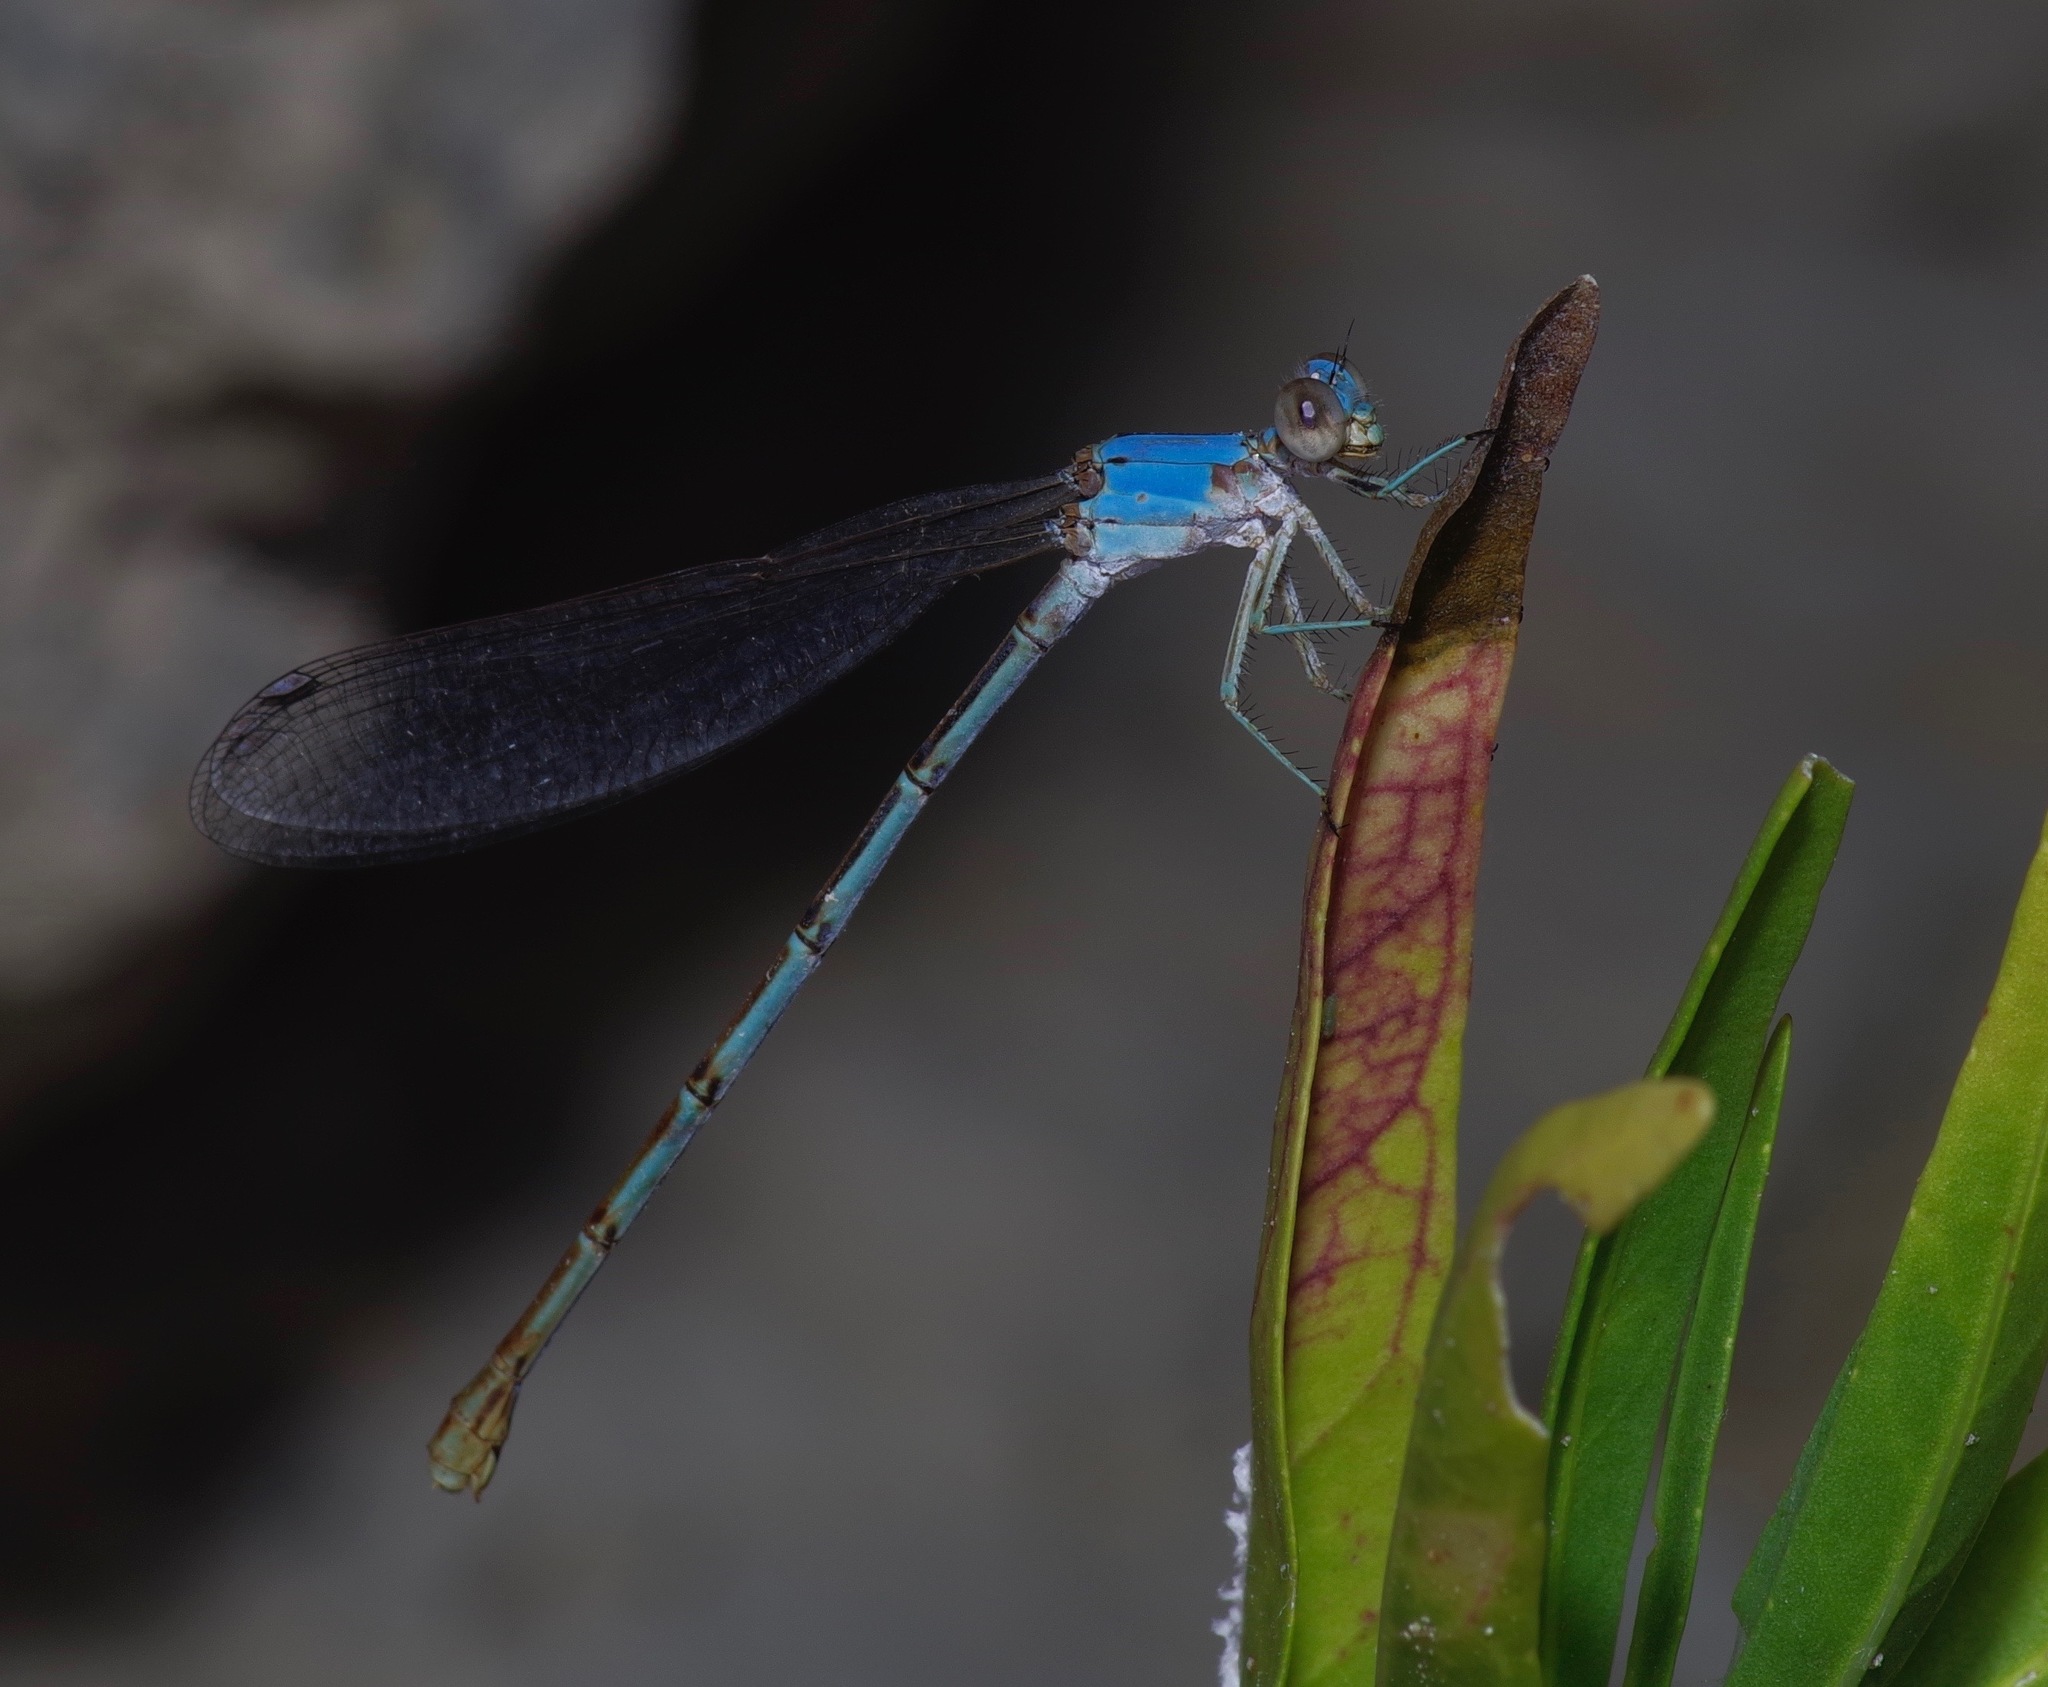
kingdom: Animalia
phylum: Arthropoda
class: Insecta
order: Odonata
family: Coenagrionidae
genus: Argia
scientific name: Argia moesta
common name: Powdered dancer
